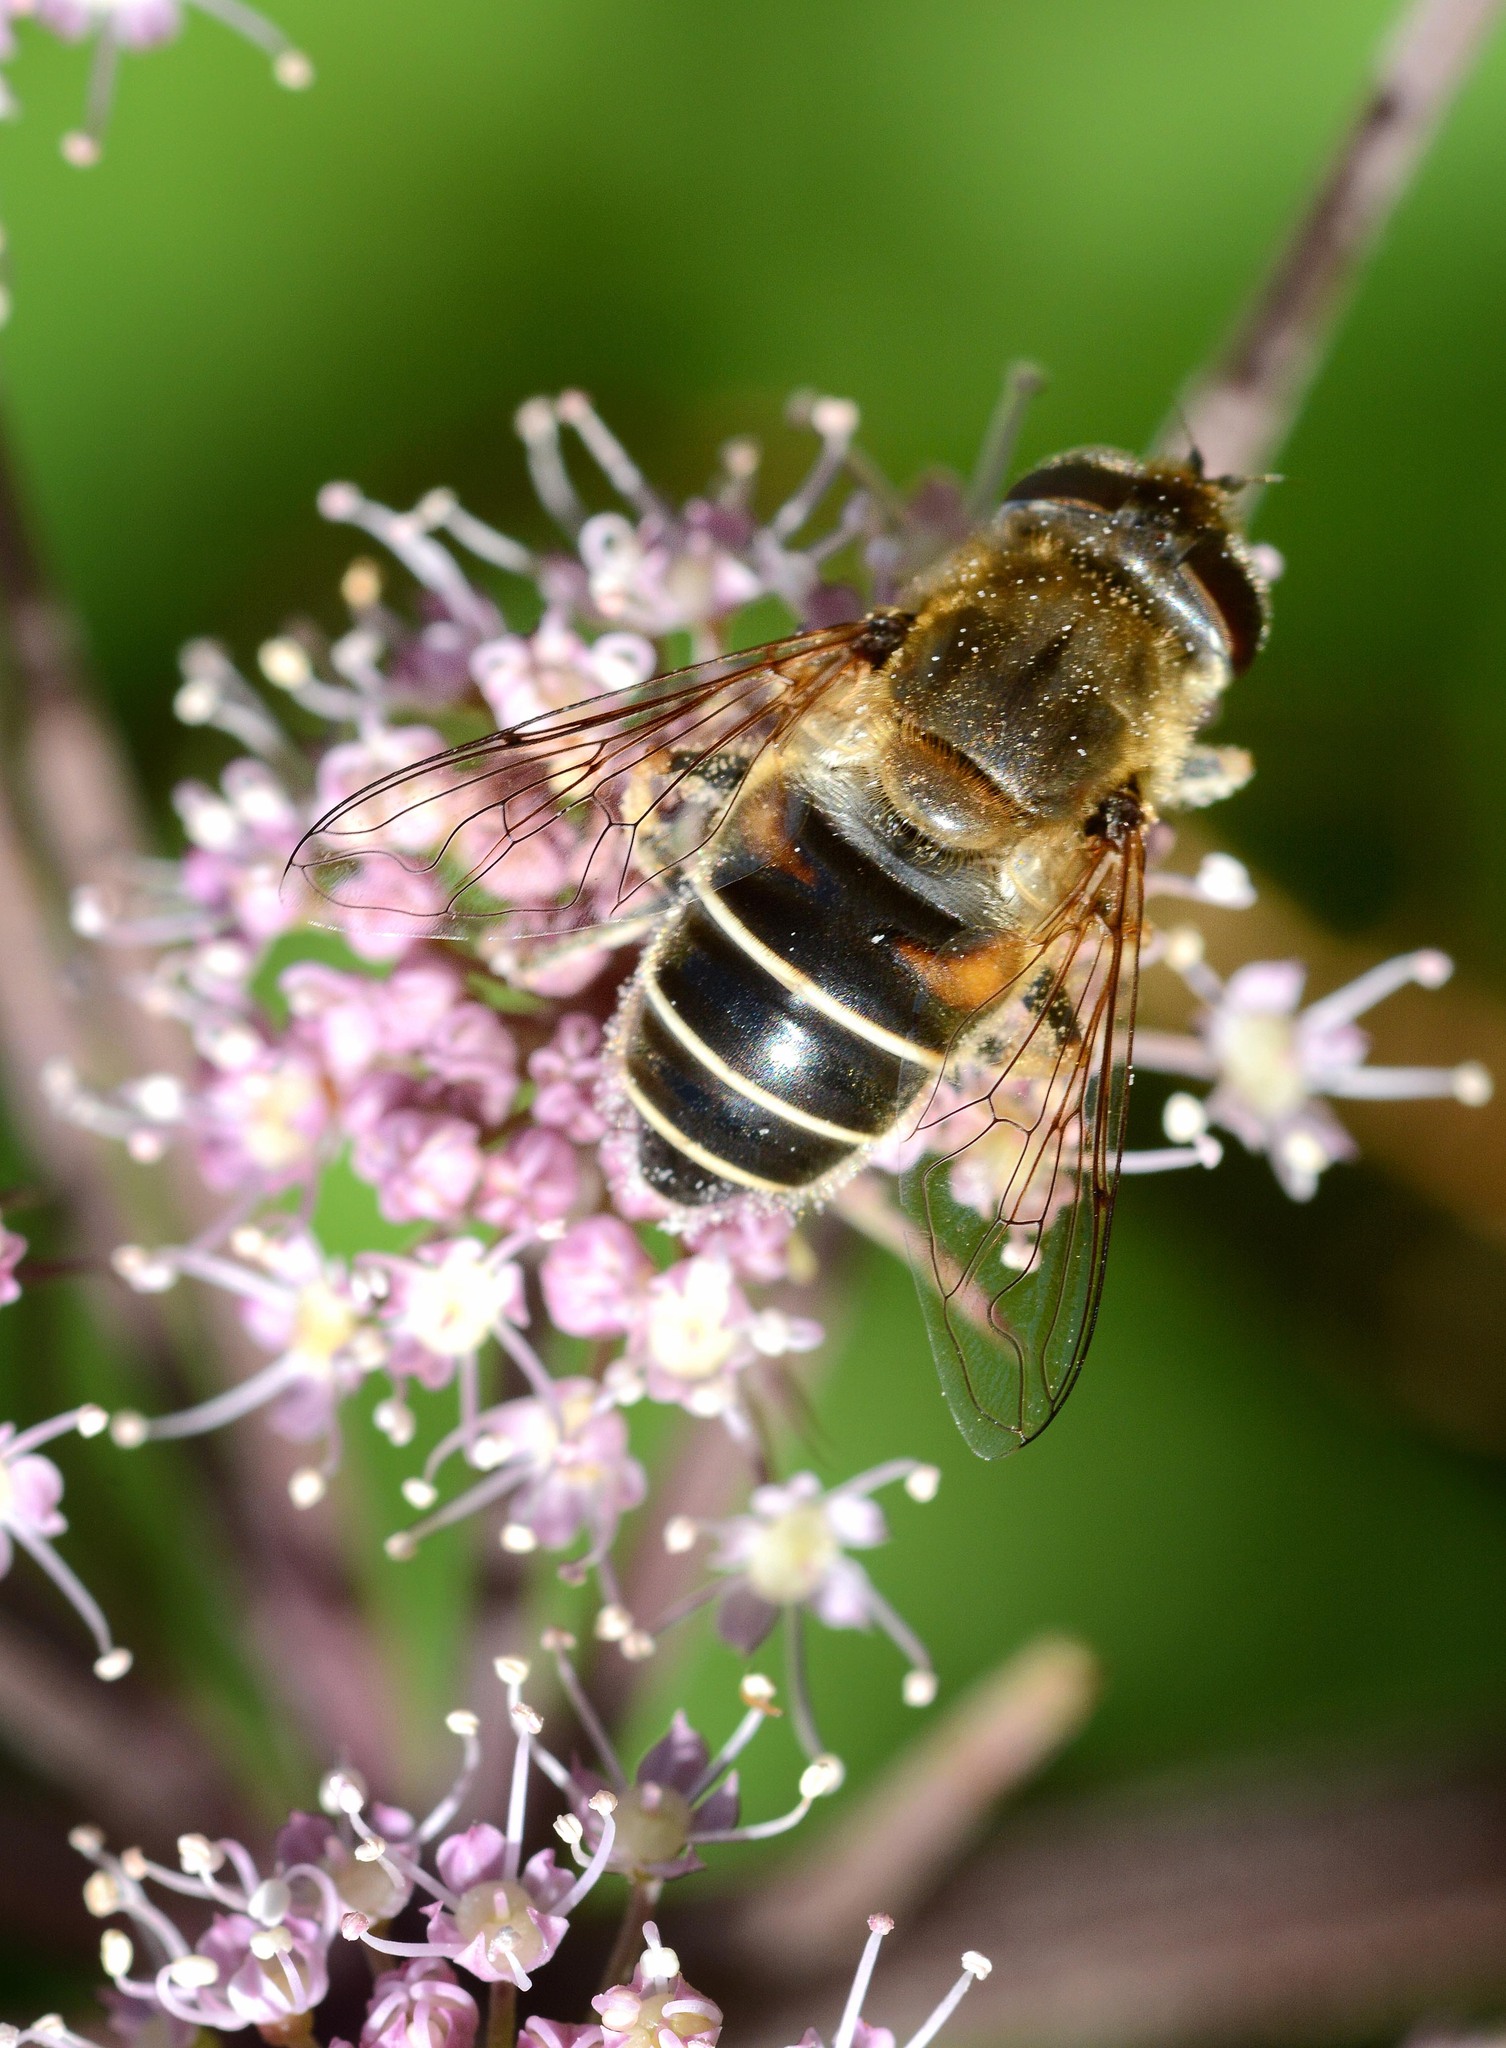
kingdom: Animalia
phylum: Arthropoda
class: Insecta
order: Diptera
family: Syrphidae
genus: Eristalis
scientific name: Eristalis nemorum
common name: Orange-spined drone fly
